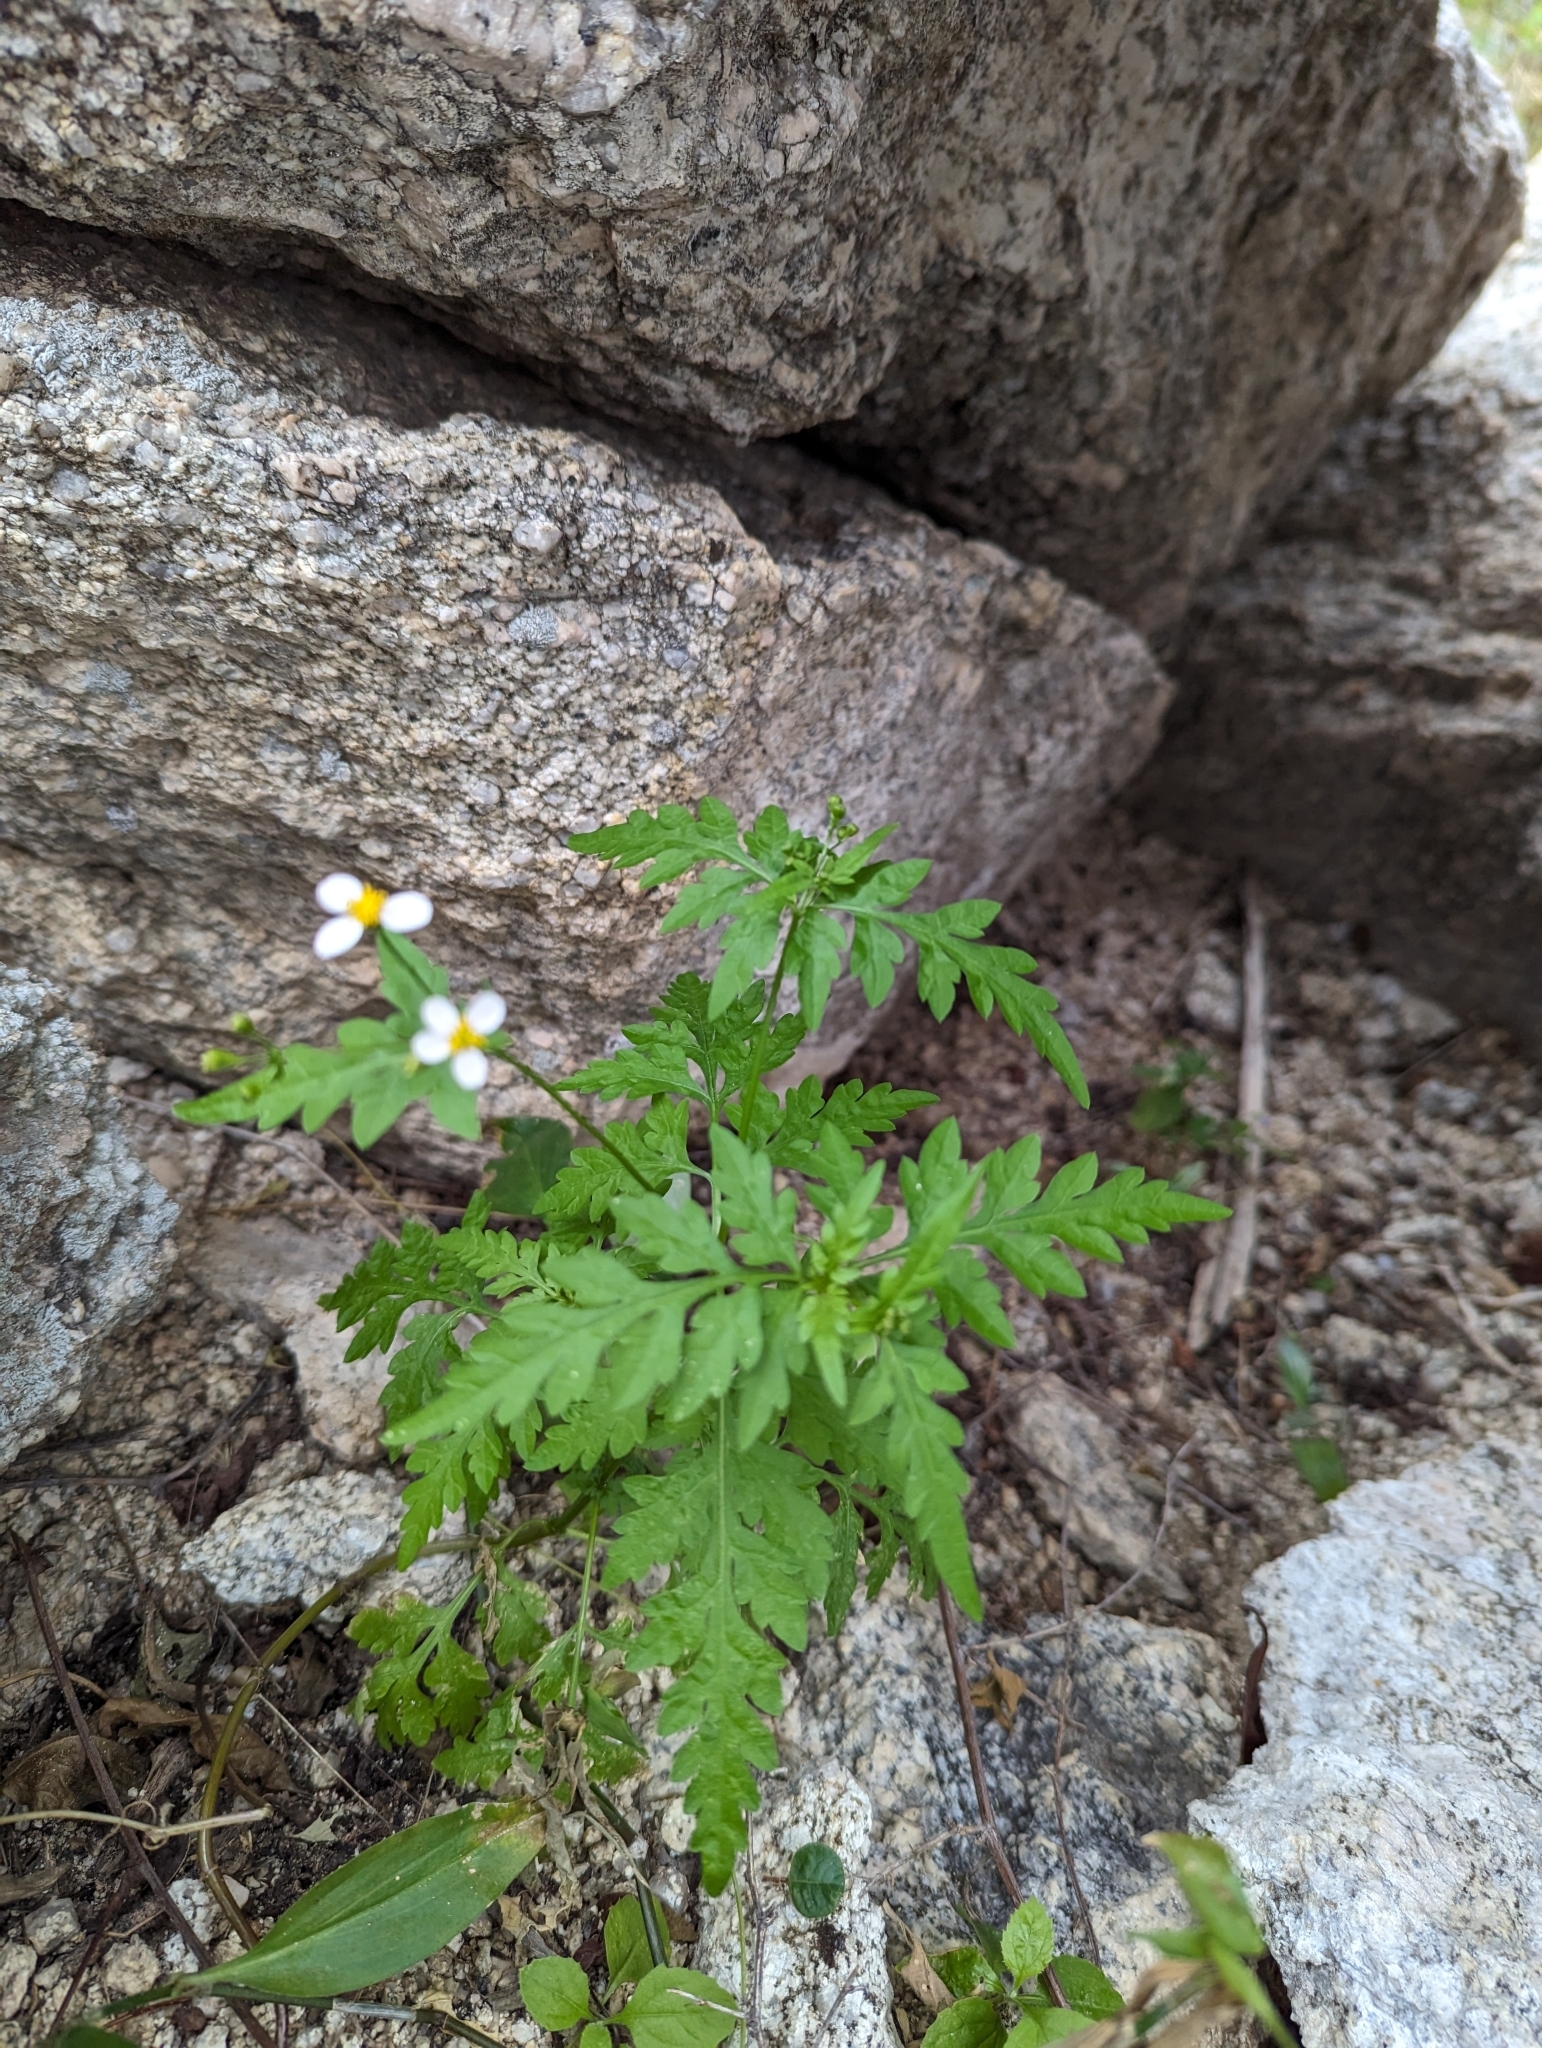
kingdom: Plantae
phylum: Tracheophyta
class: Magnoliopsida
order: Asterales
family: Asteraceae
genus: Coreocarpus
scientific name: Coreocarpus parthenioides
